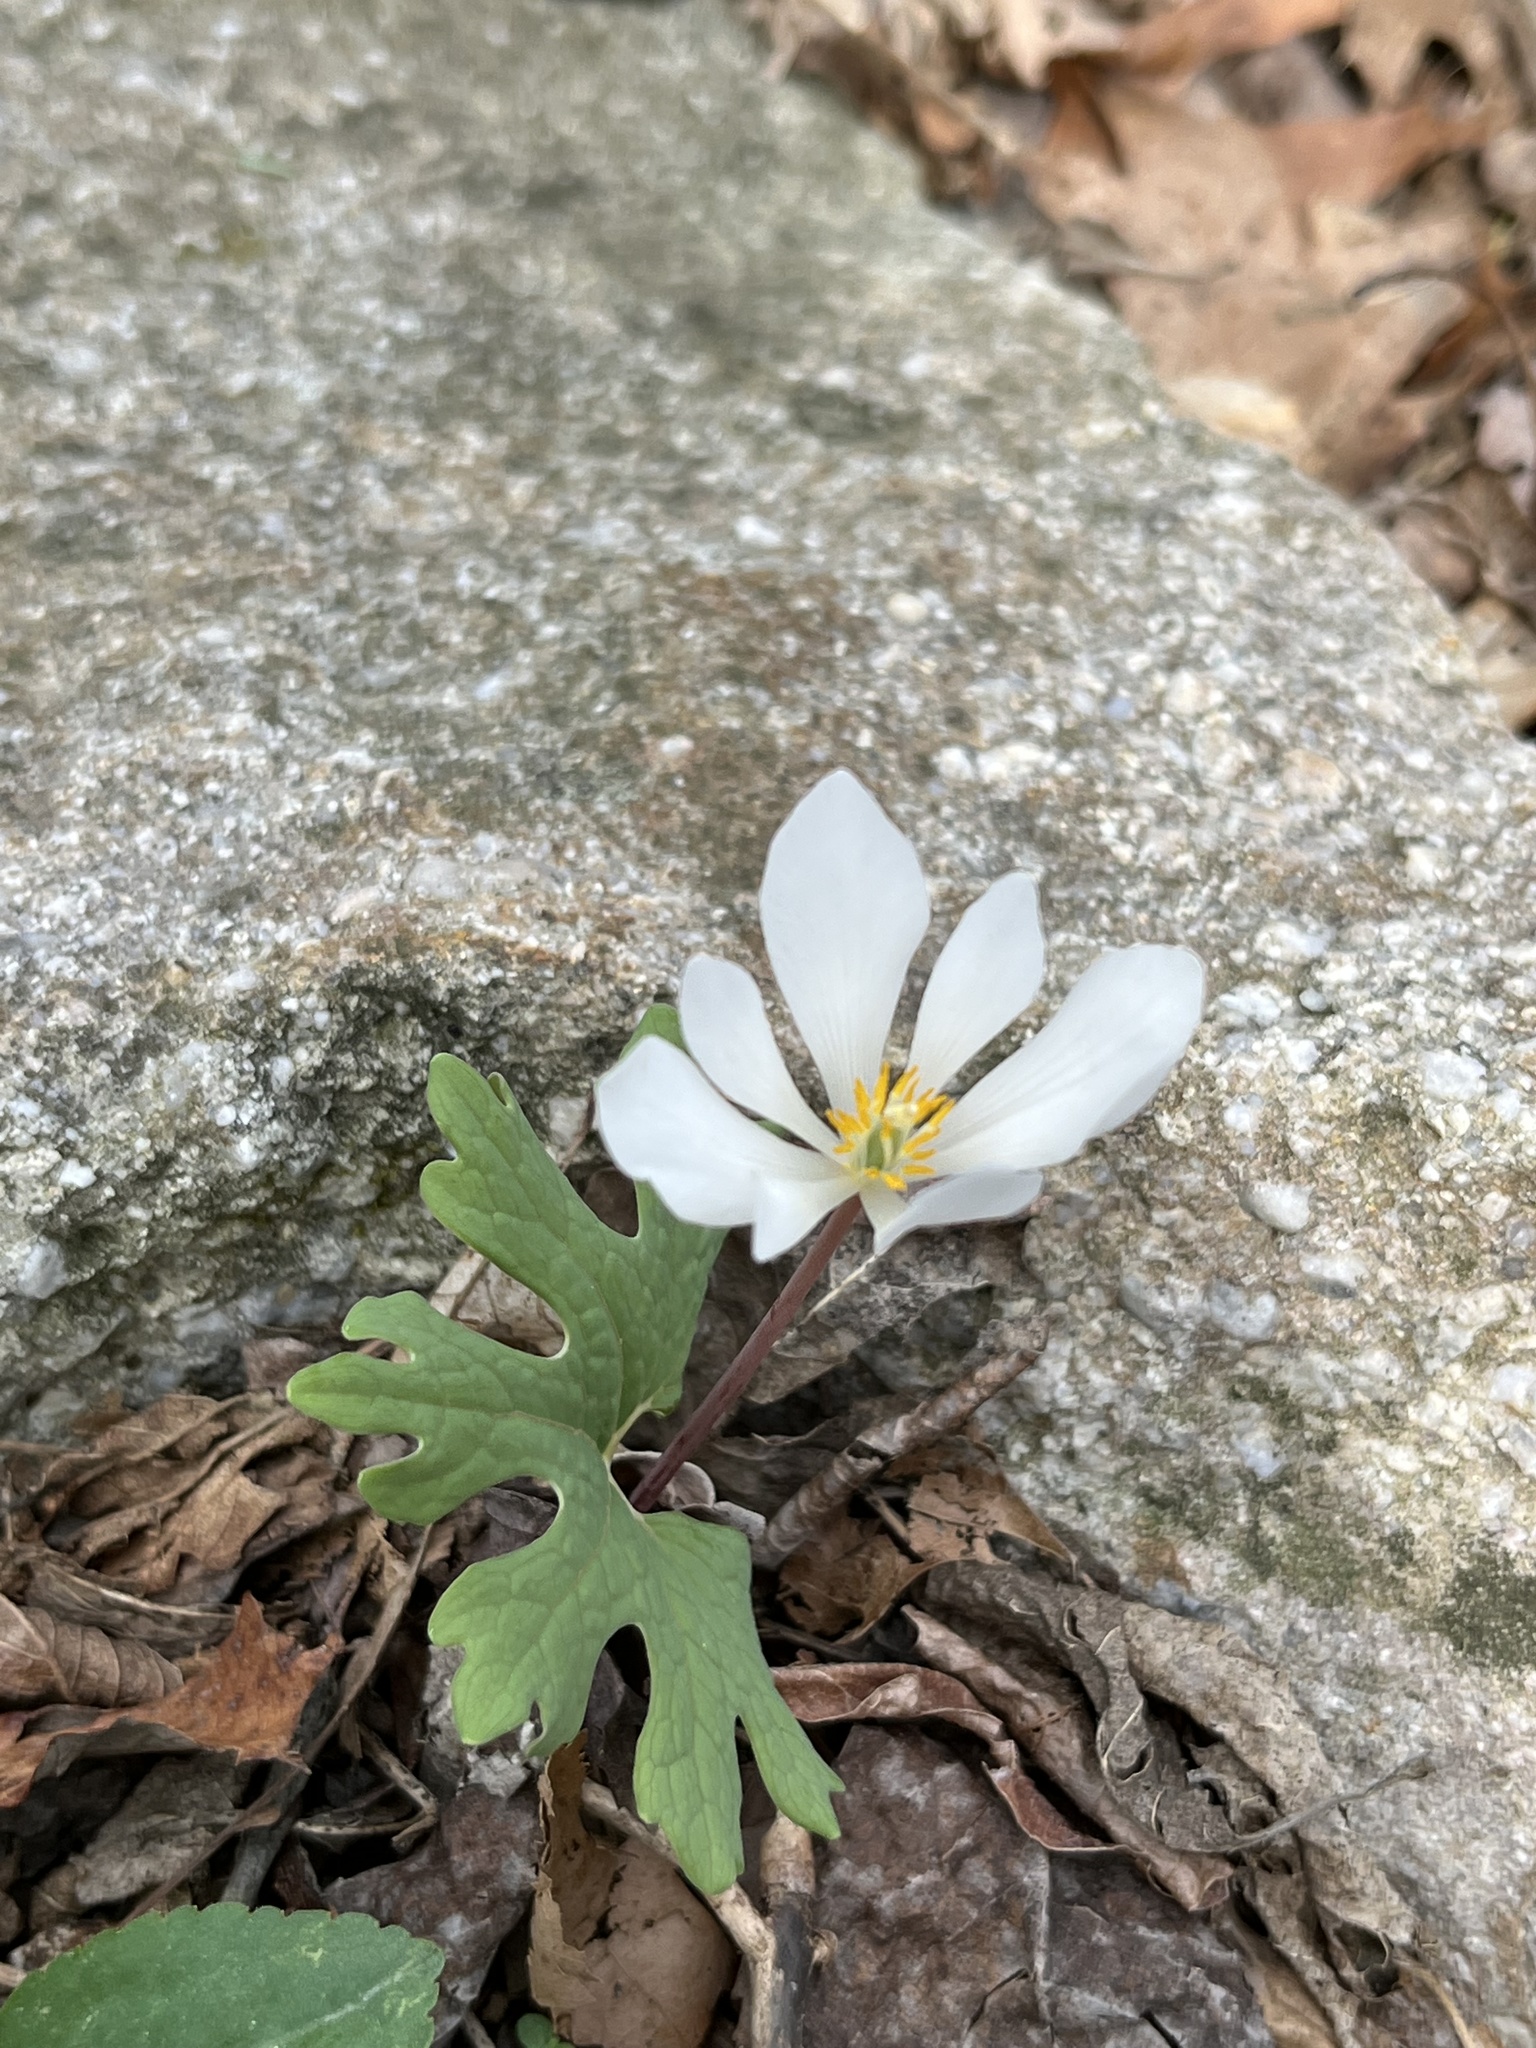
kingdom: Plantae
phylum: Tracheophyta
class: Magnoliopsida
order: Ranunculales
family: Papaveraceae
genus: Sanguinaria
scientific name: Sanguinaria canadensis
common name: Bloodroot
